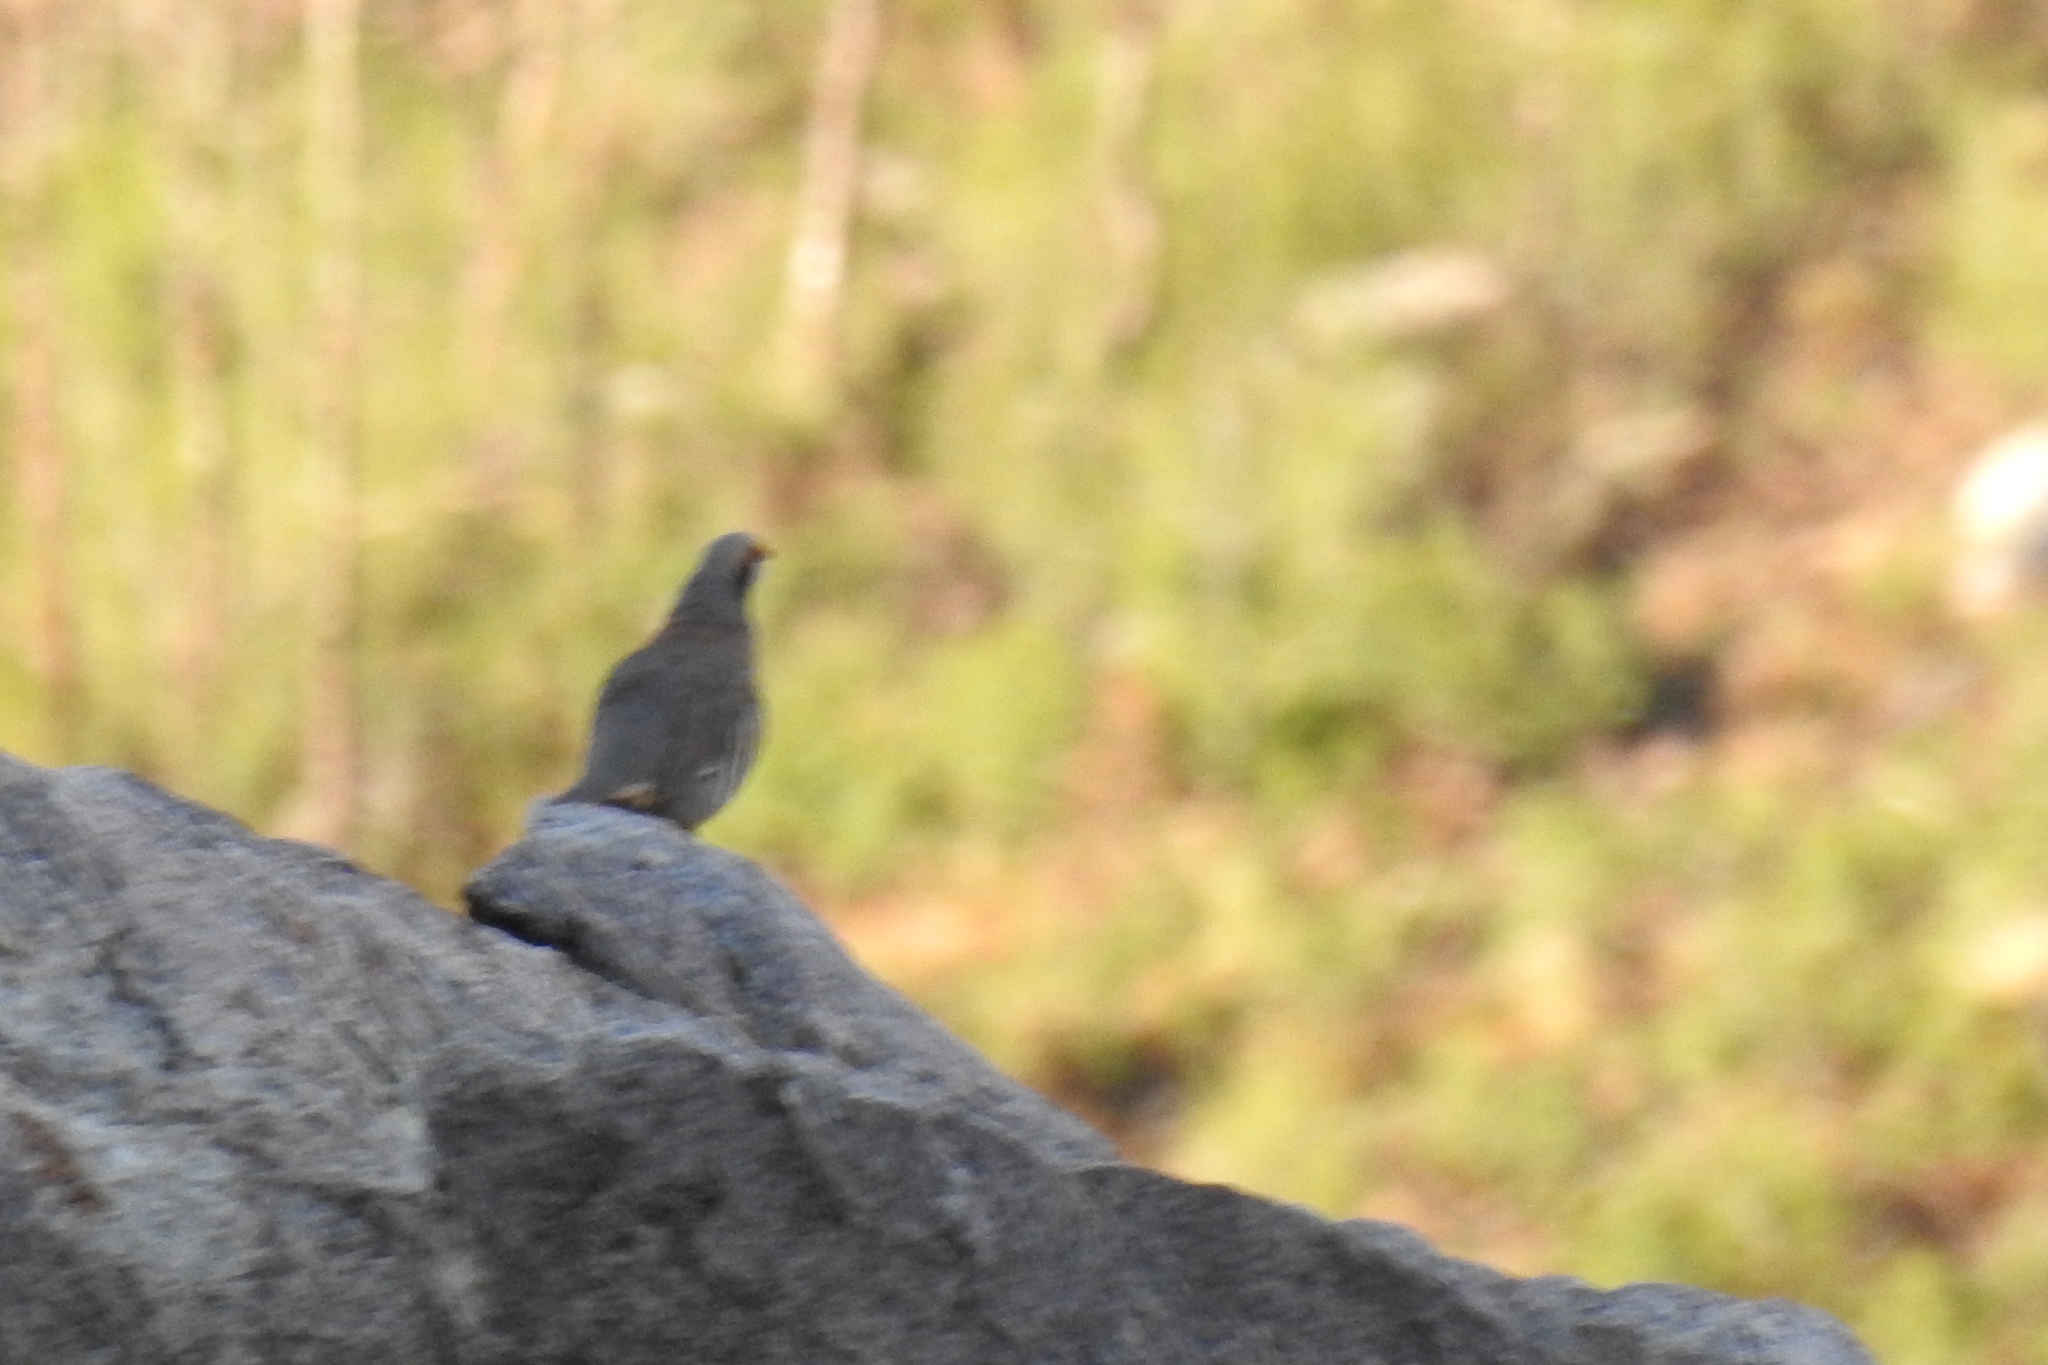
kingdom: Animalia
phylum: Chordata
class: Aves
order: Galliformes
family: Phasianidae
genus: Alectoris
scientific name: Alectoris chukar
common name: Chukar
